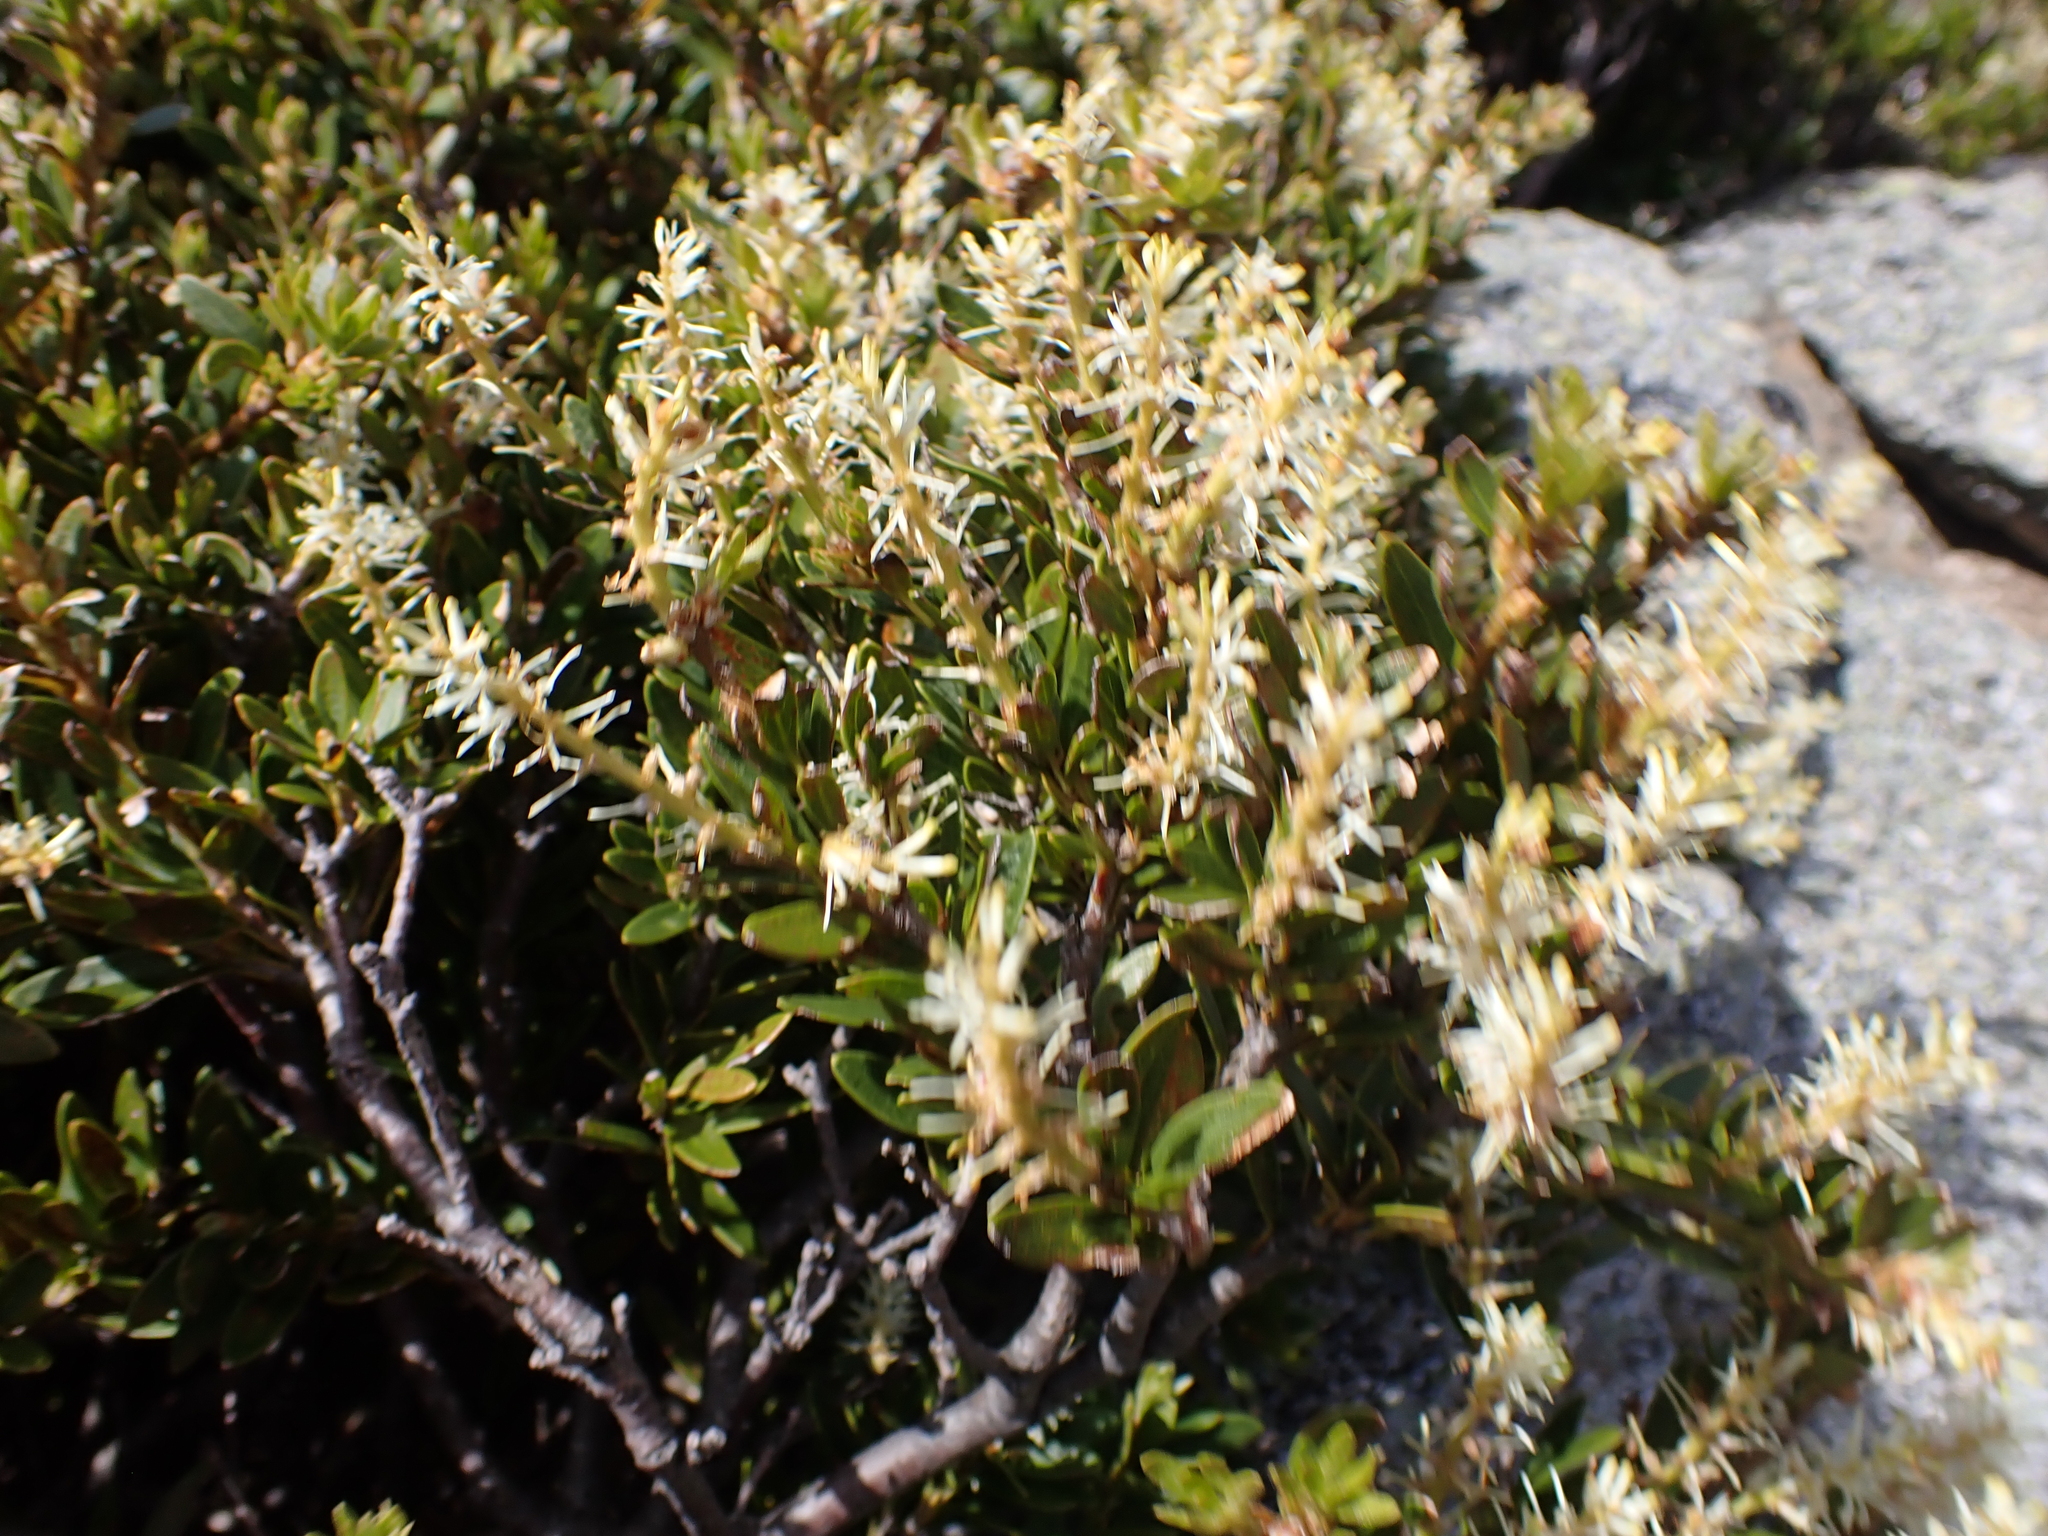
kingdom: Plantae
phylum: Tracheophyta
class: Magnoliopsida
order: Proteales
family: Proteaceae
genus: Orites
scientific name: Orites lancifolius
